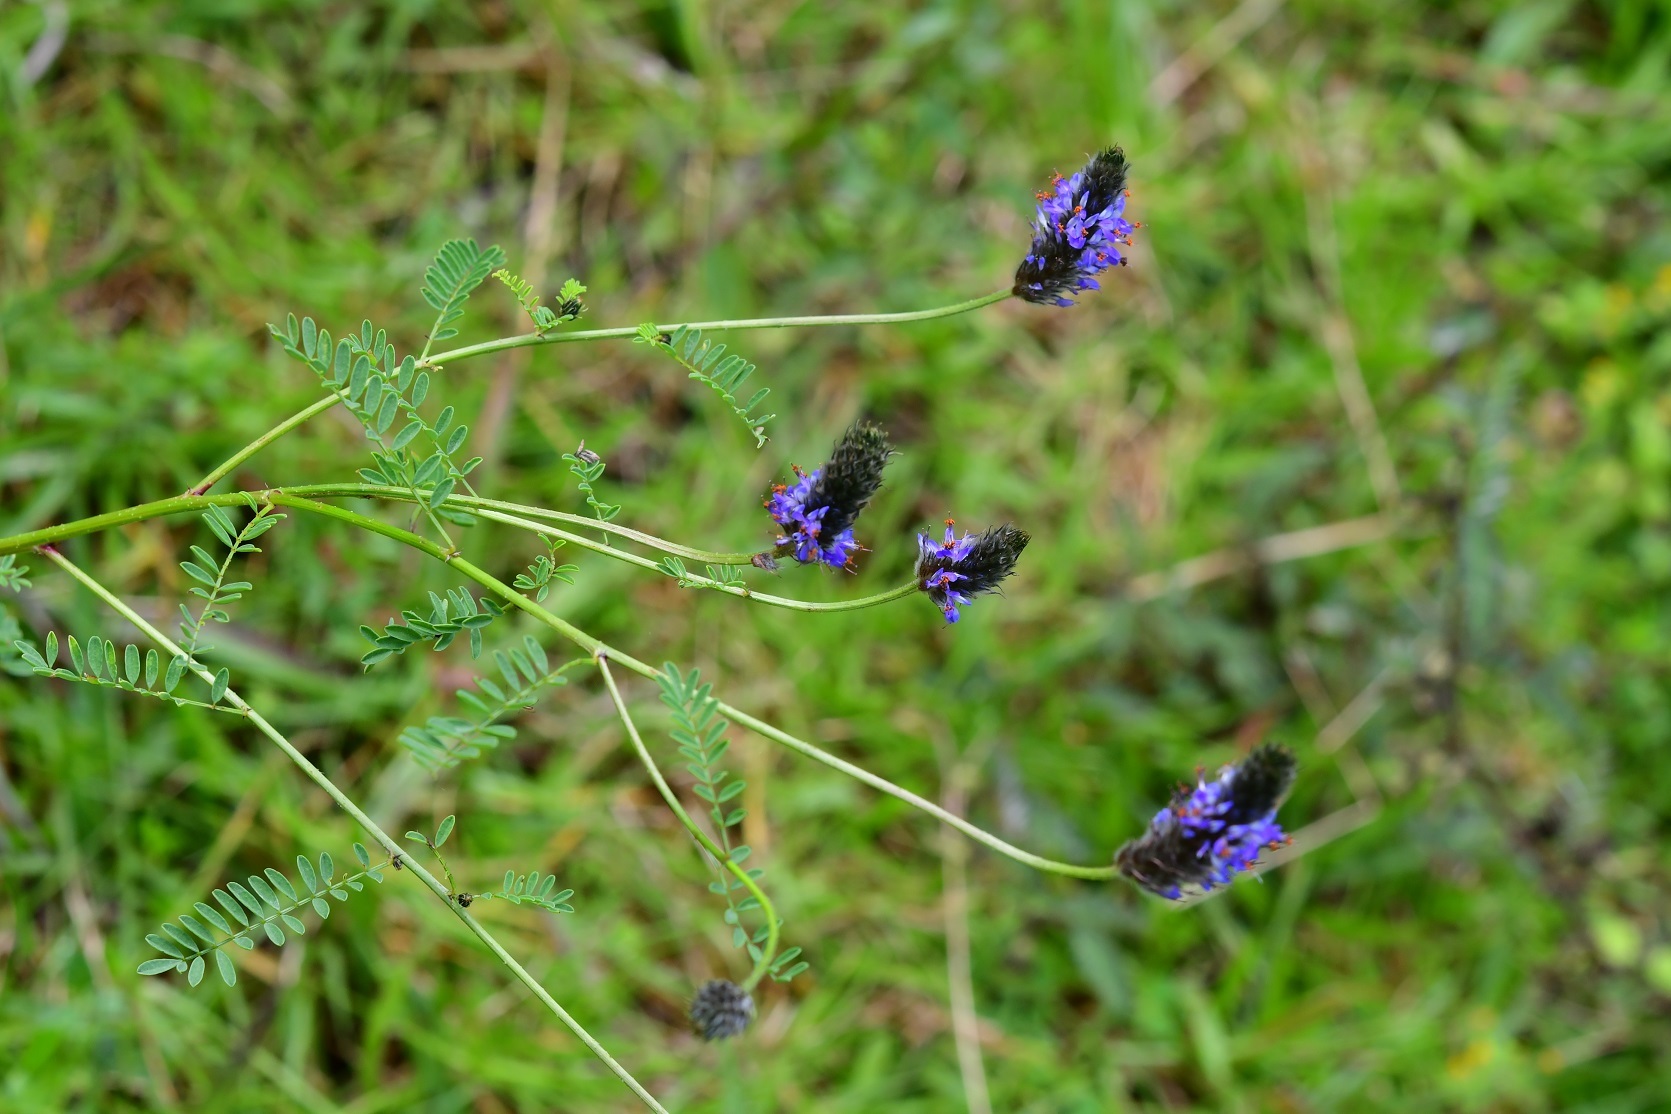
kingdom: Plantae
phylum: Tracheophyta
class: Magnoliopsida
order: Fabales
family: Fabaceae
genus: Dalea
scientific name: Dalea leporina
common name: Foxtail dalea
